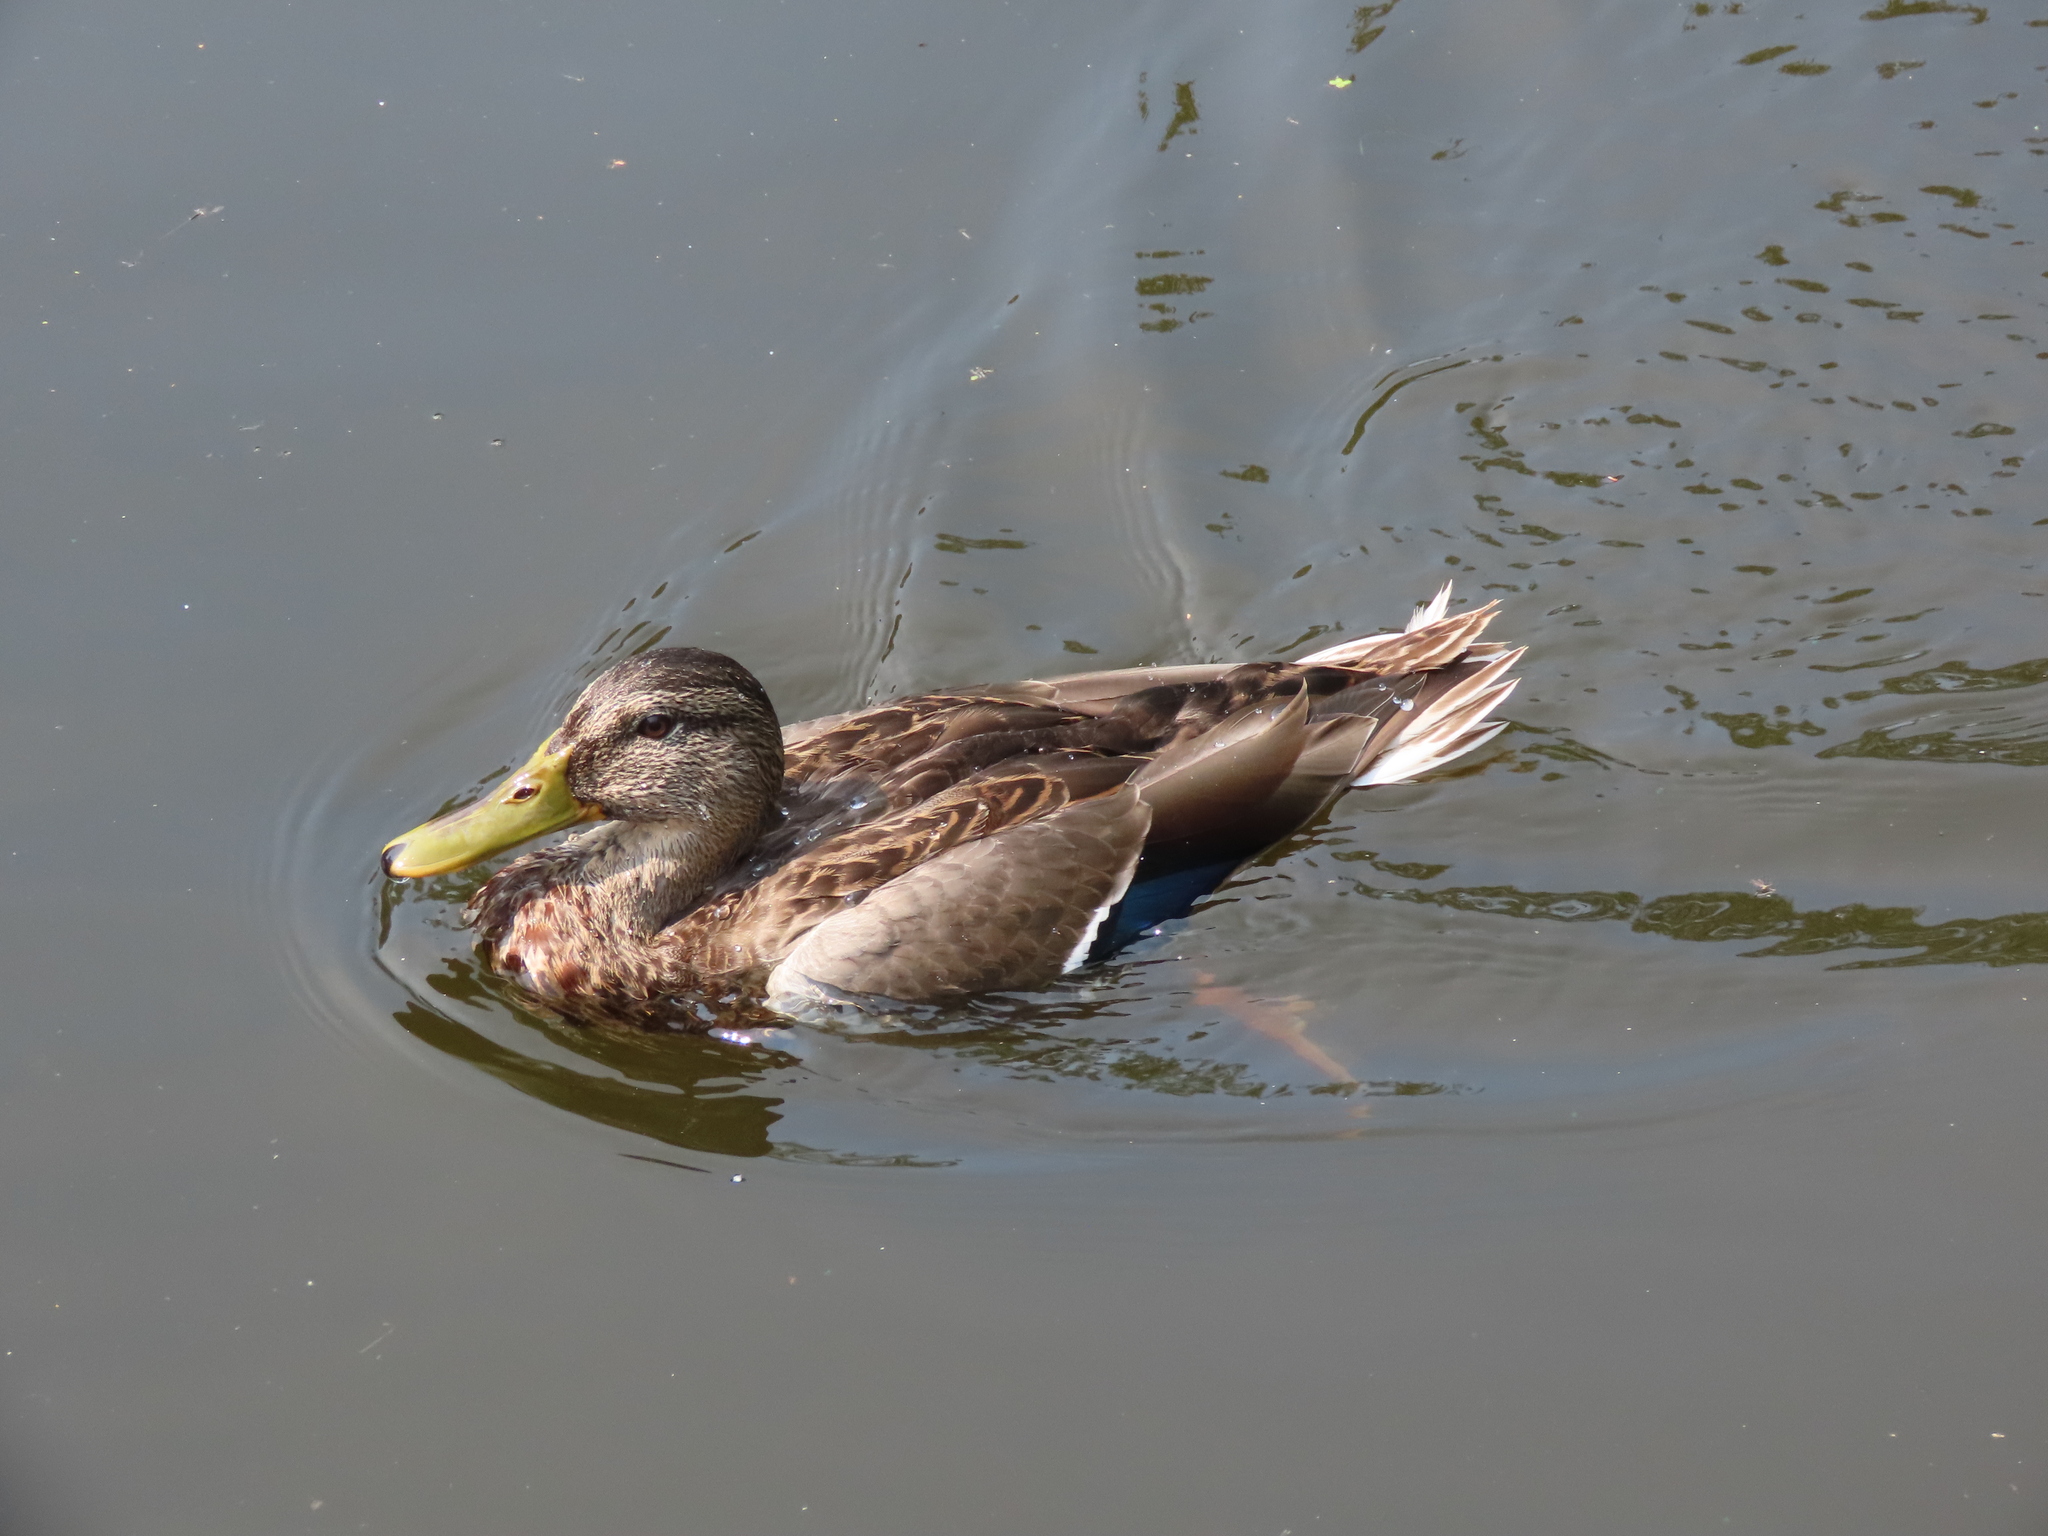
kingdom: Animalia
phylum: Chordata
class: Aves
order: Anseriformes
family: Anatidae
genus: Anas
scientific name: Anas platyrhynchos
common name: Mallard
